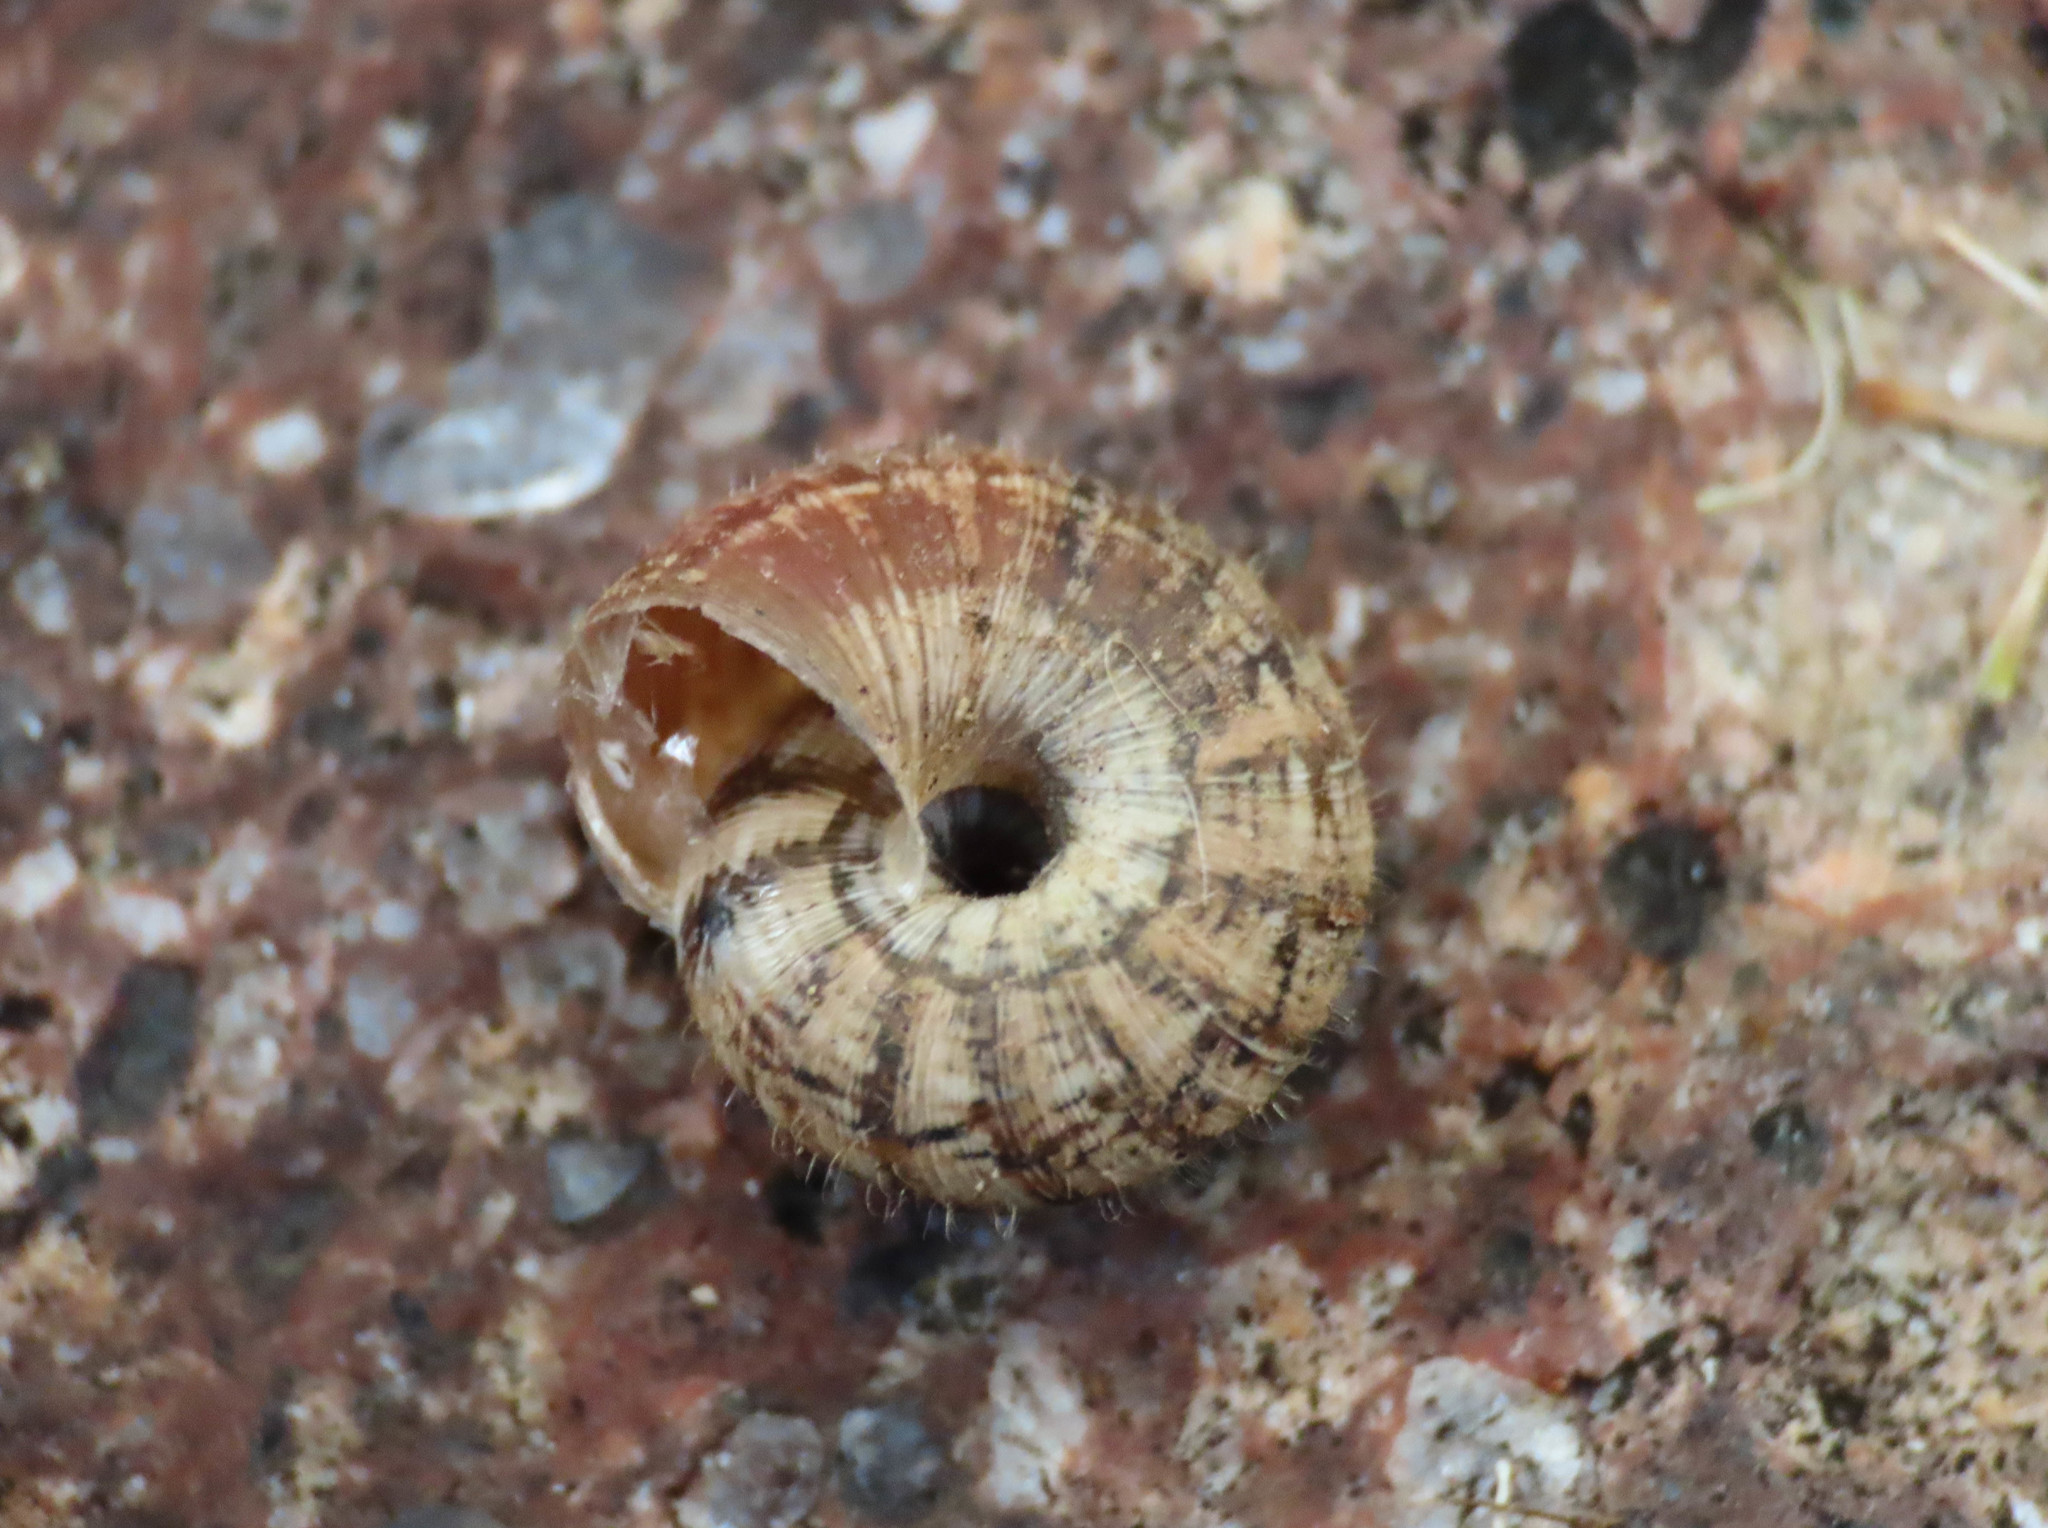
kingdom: Animalia
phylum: Mollusca
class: Gastropoda
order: Stylommatophora
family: Geomitridae
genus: Xerotricha
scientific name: Xerotricha conspurcata
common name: Snail
